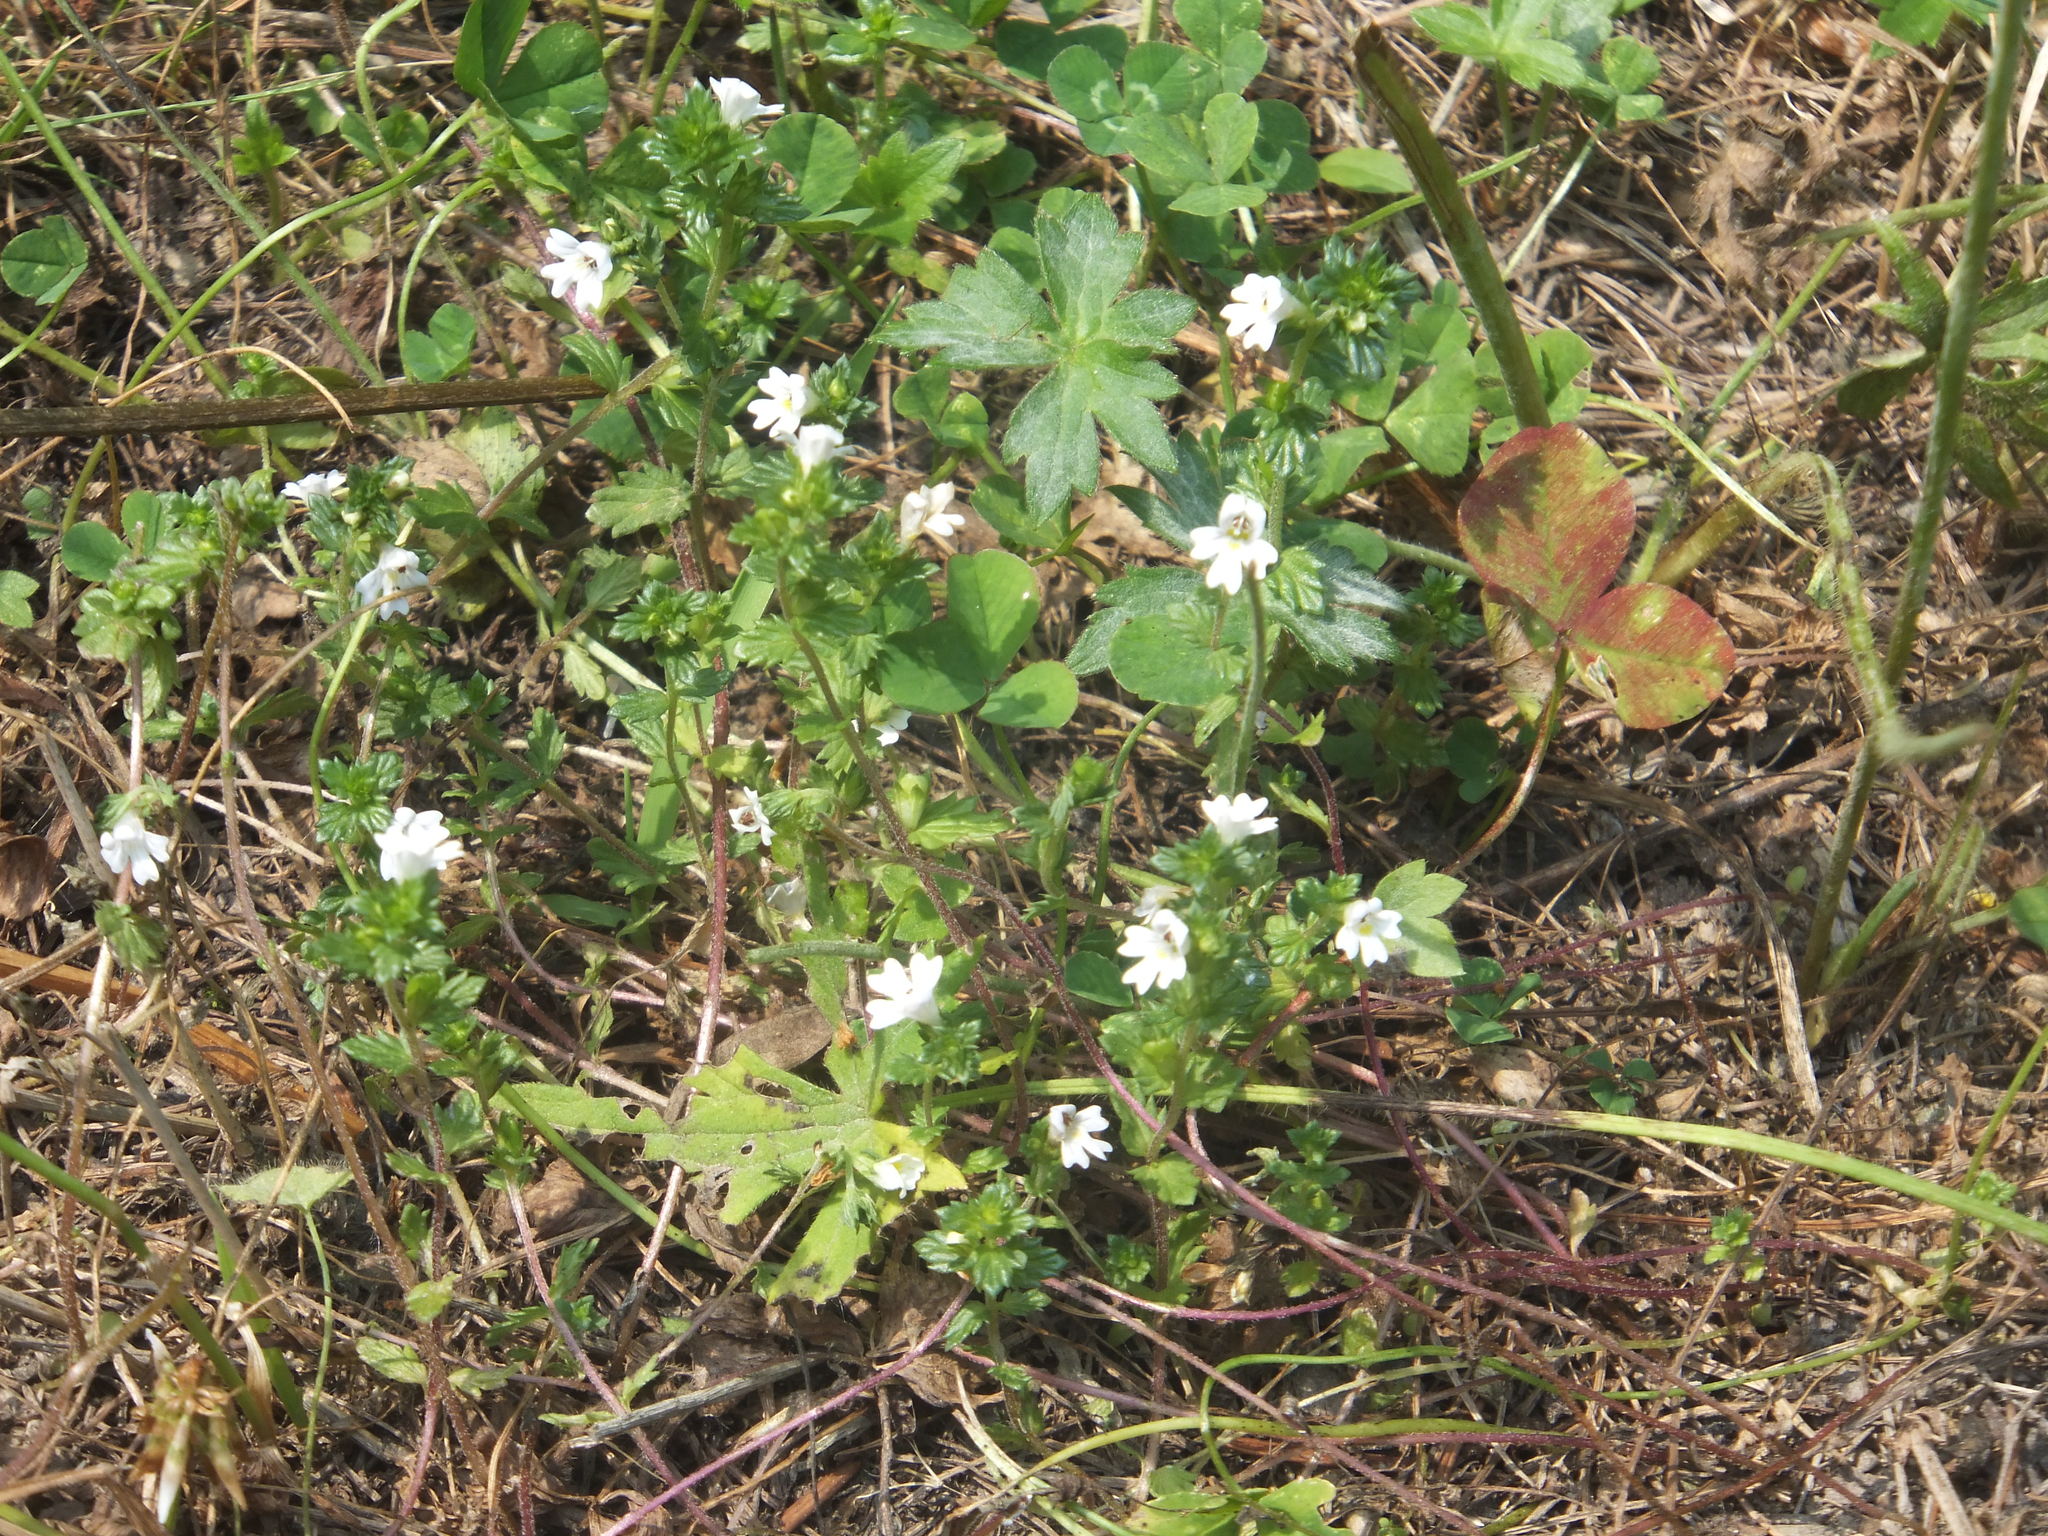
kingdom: Plantae
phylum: Tracheophyta
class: Magnoliopsida
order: Lamiales
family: Orobanchaceae
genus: Euphrasia
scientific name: Euphrasia nemorosa
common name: Common eyebright
